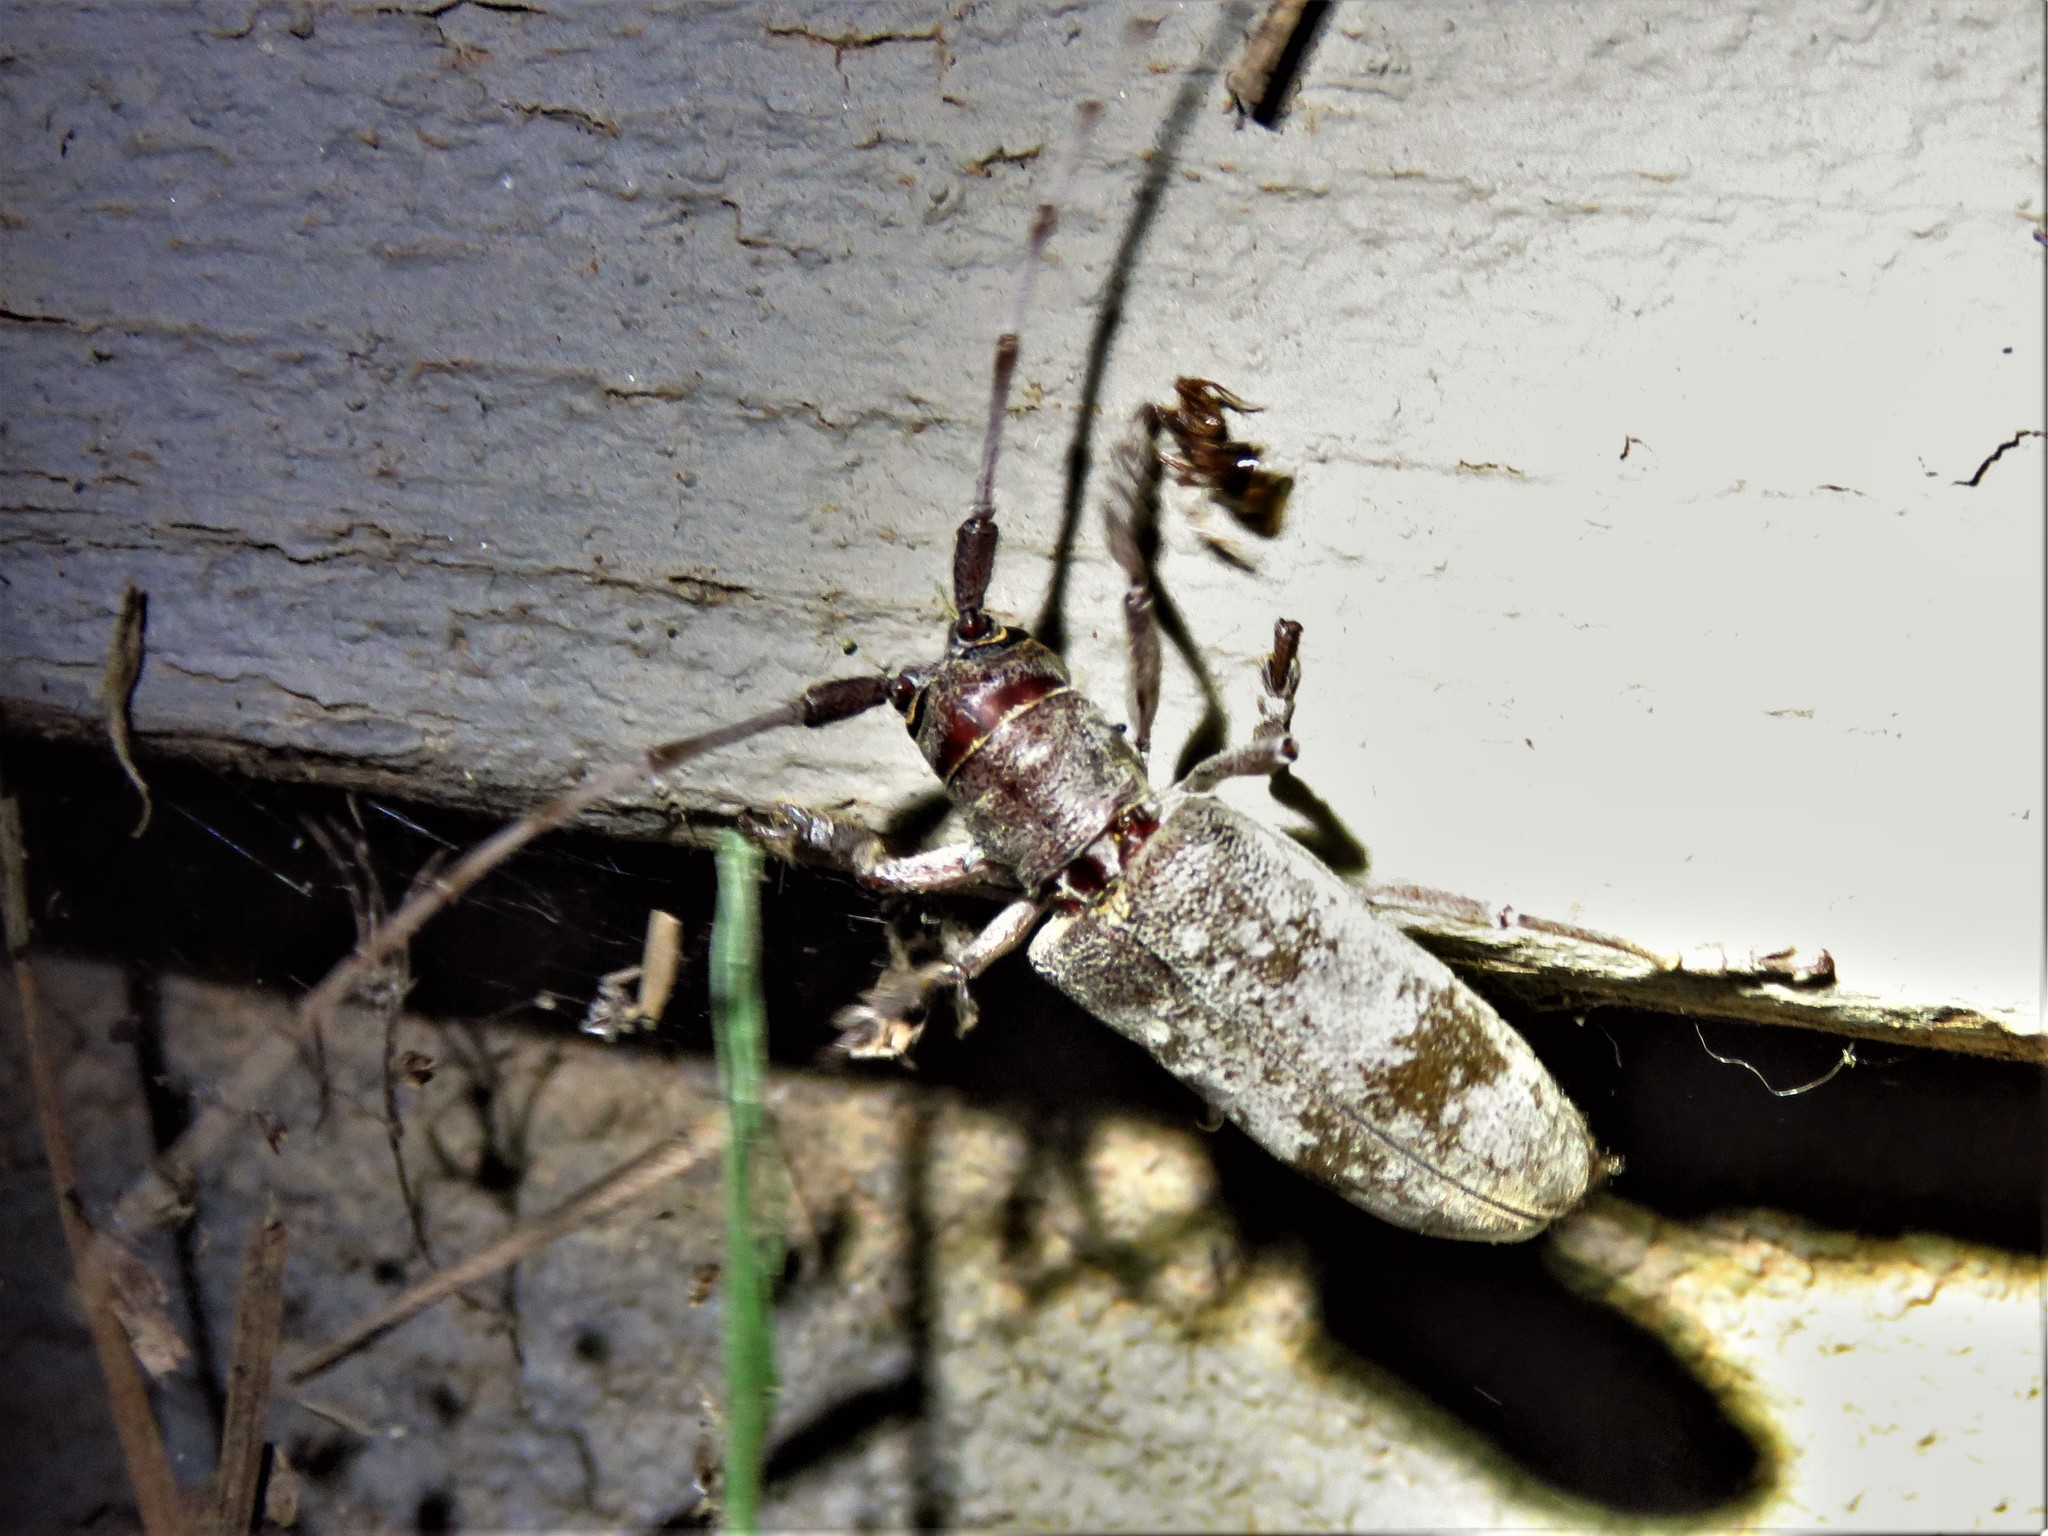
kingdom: Animalia
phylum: Arthropoda
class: Insecta
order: Coleoptera
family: Cerambycidae
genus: Goes
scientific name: Goes tigrinus
